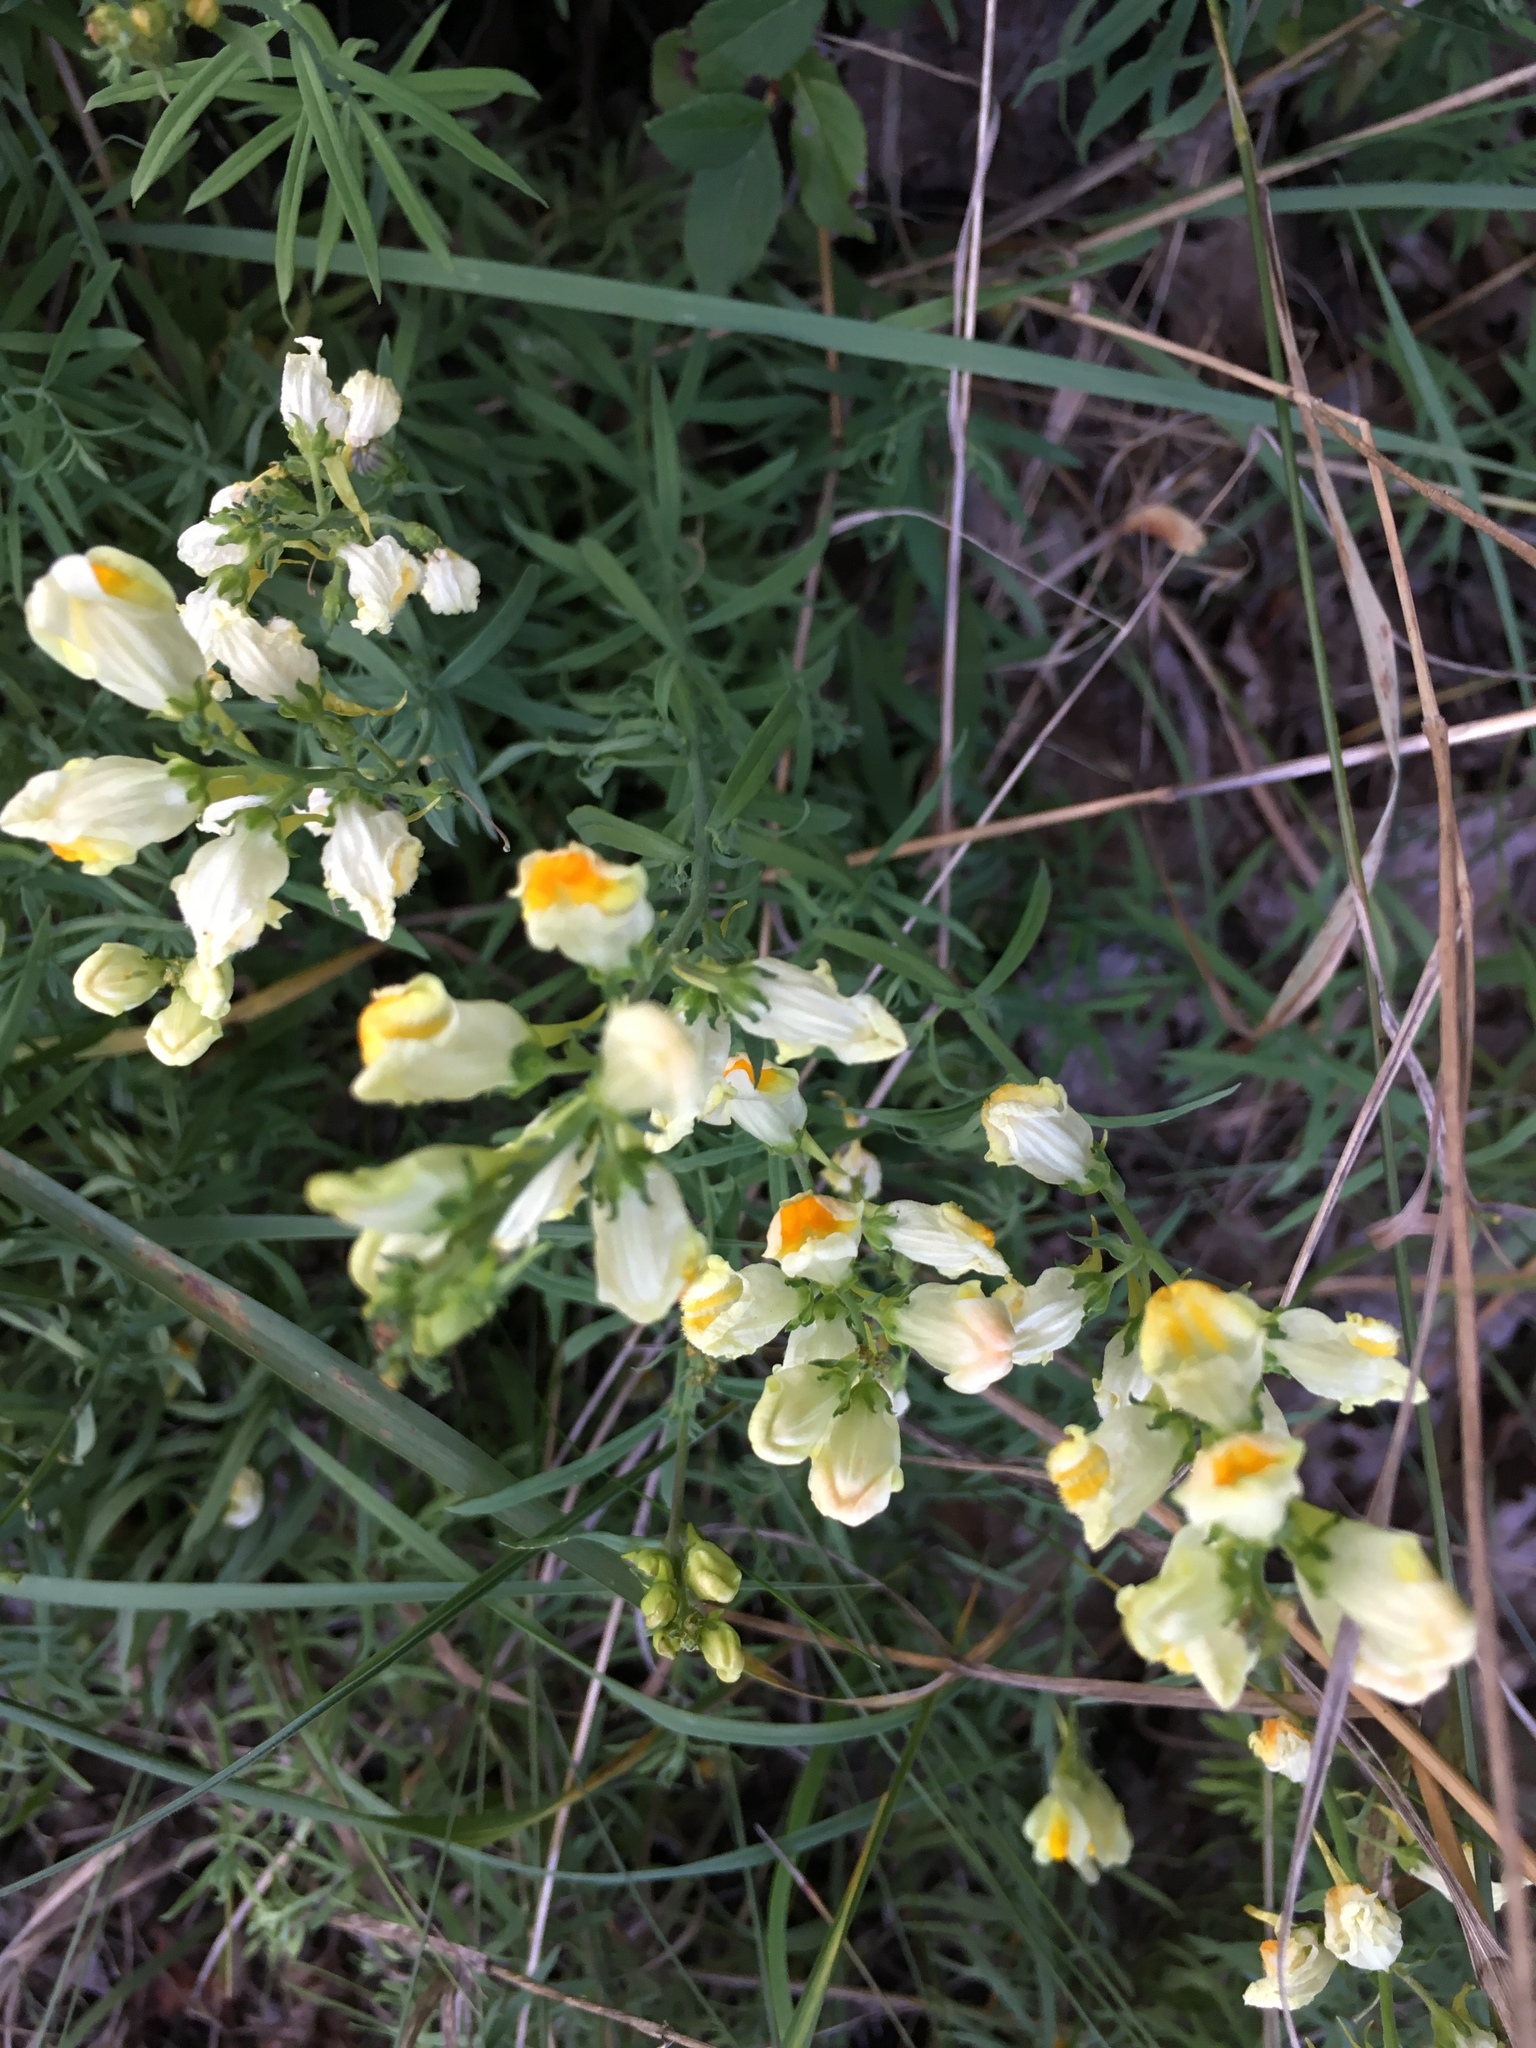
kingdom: Plantae
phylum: Tracheophyta
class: Magnoliopsida
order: Lamiales
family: Plantaginaceae
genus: Linaria
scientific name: Linaria vulgaris
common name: Butter and eggs
